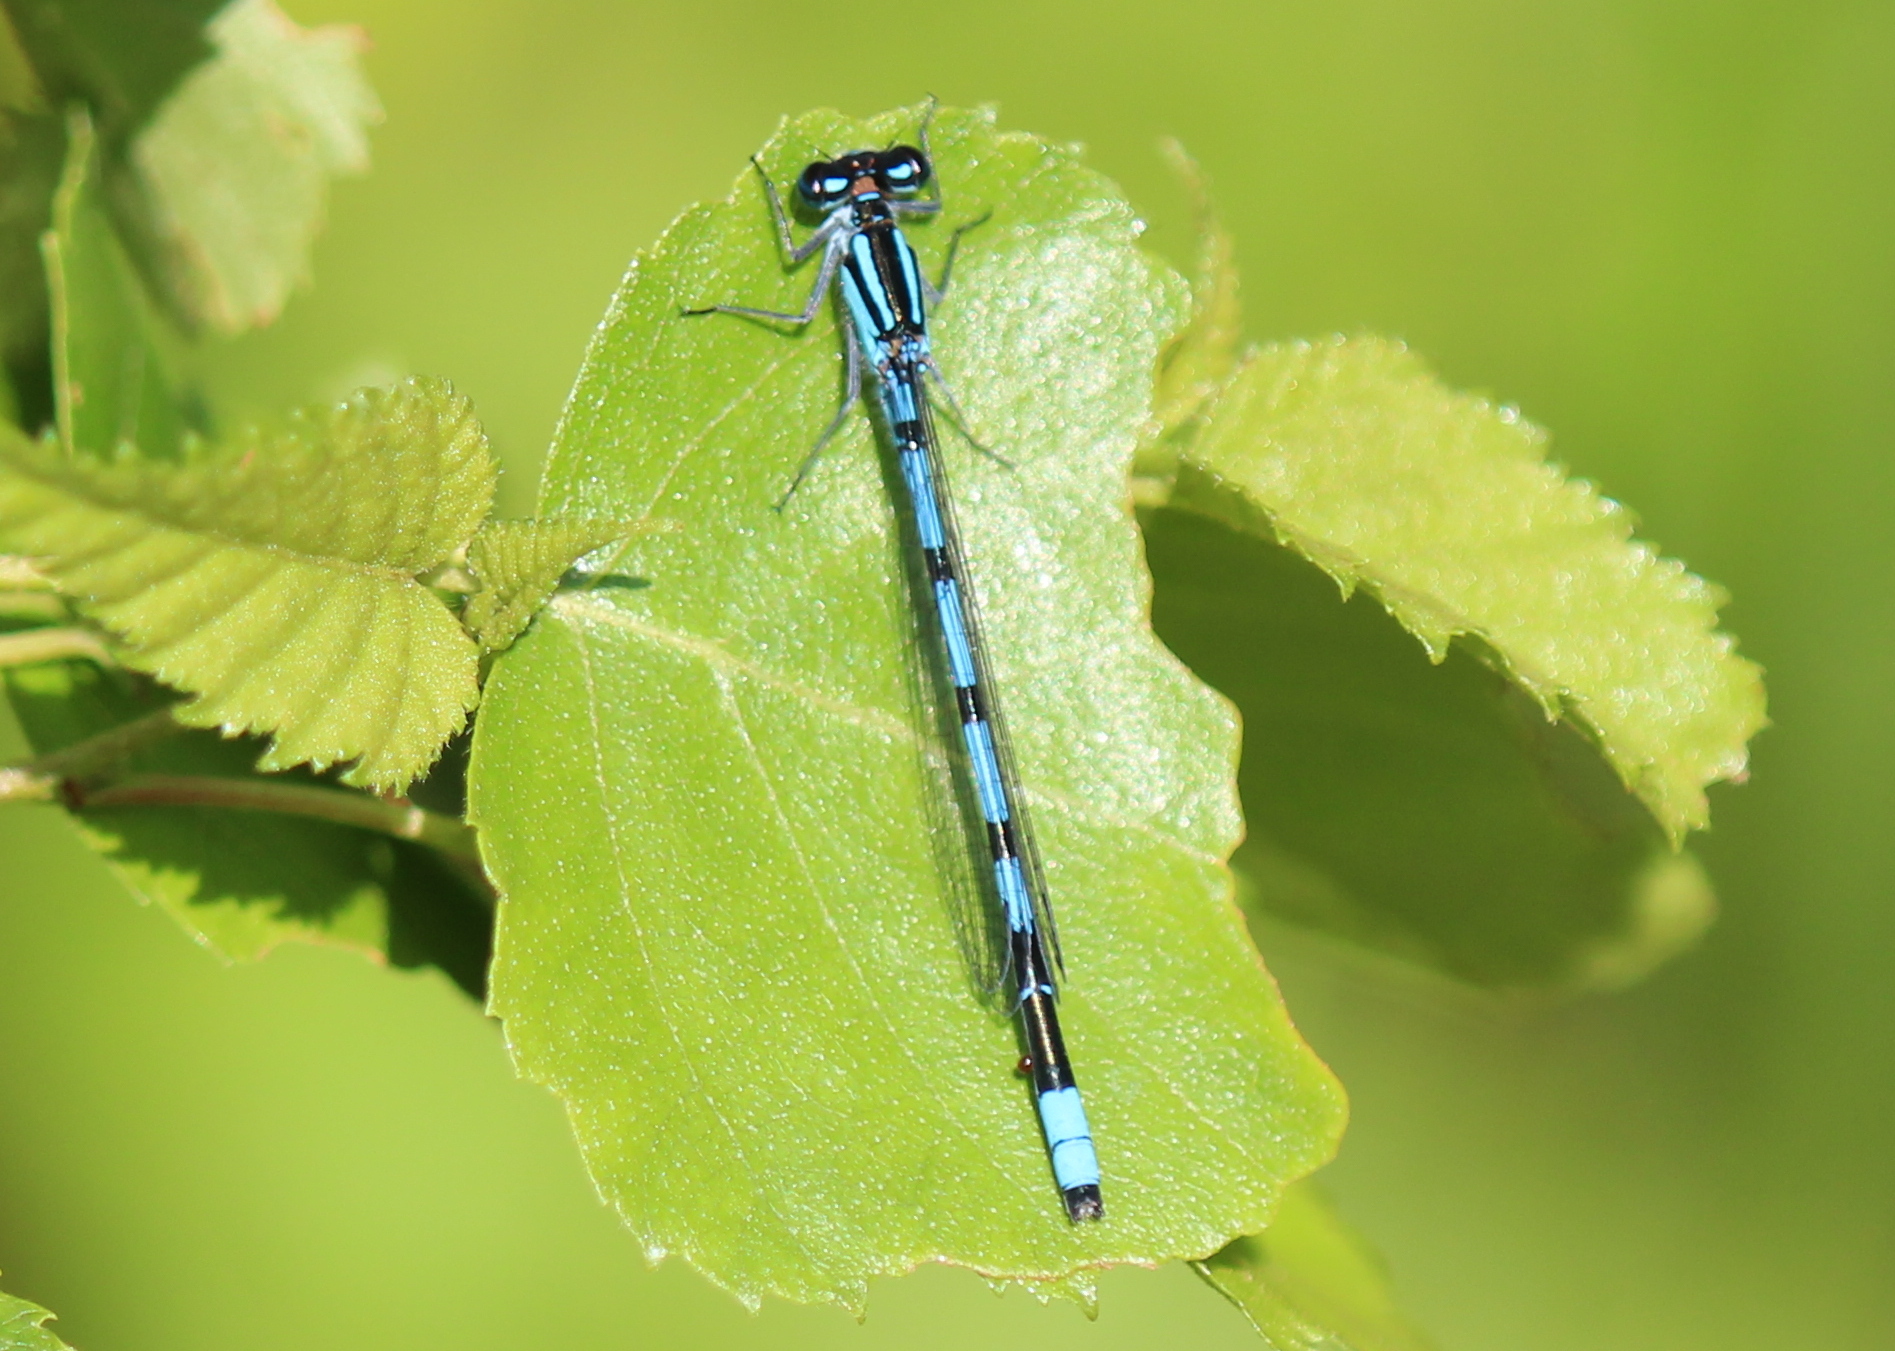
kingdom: Animalia
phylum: Arthropoda
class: Insecta
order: Odonata
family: Coenagrionidae
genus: Enallagma
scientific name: Enallagma ebrium
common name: Marsh bluet
